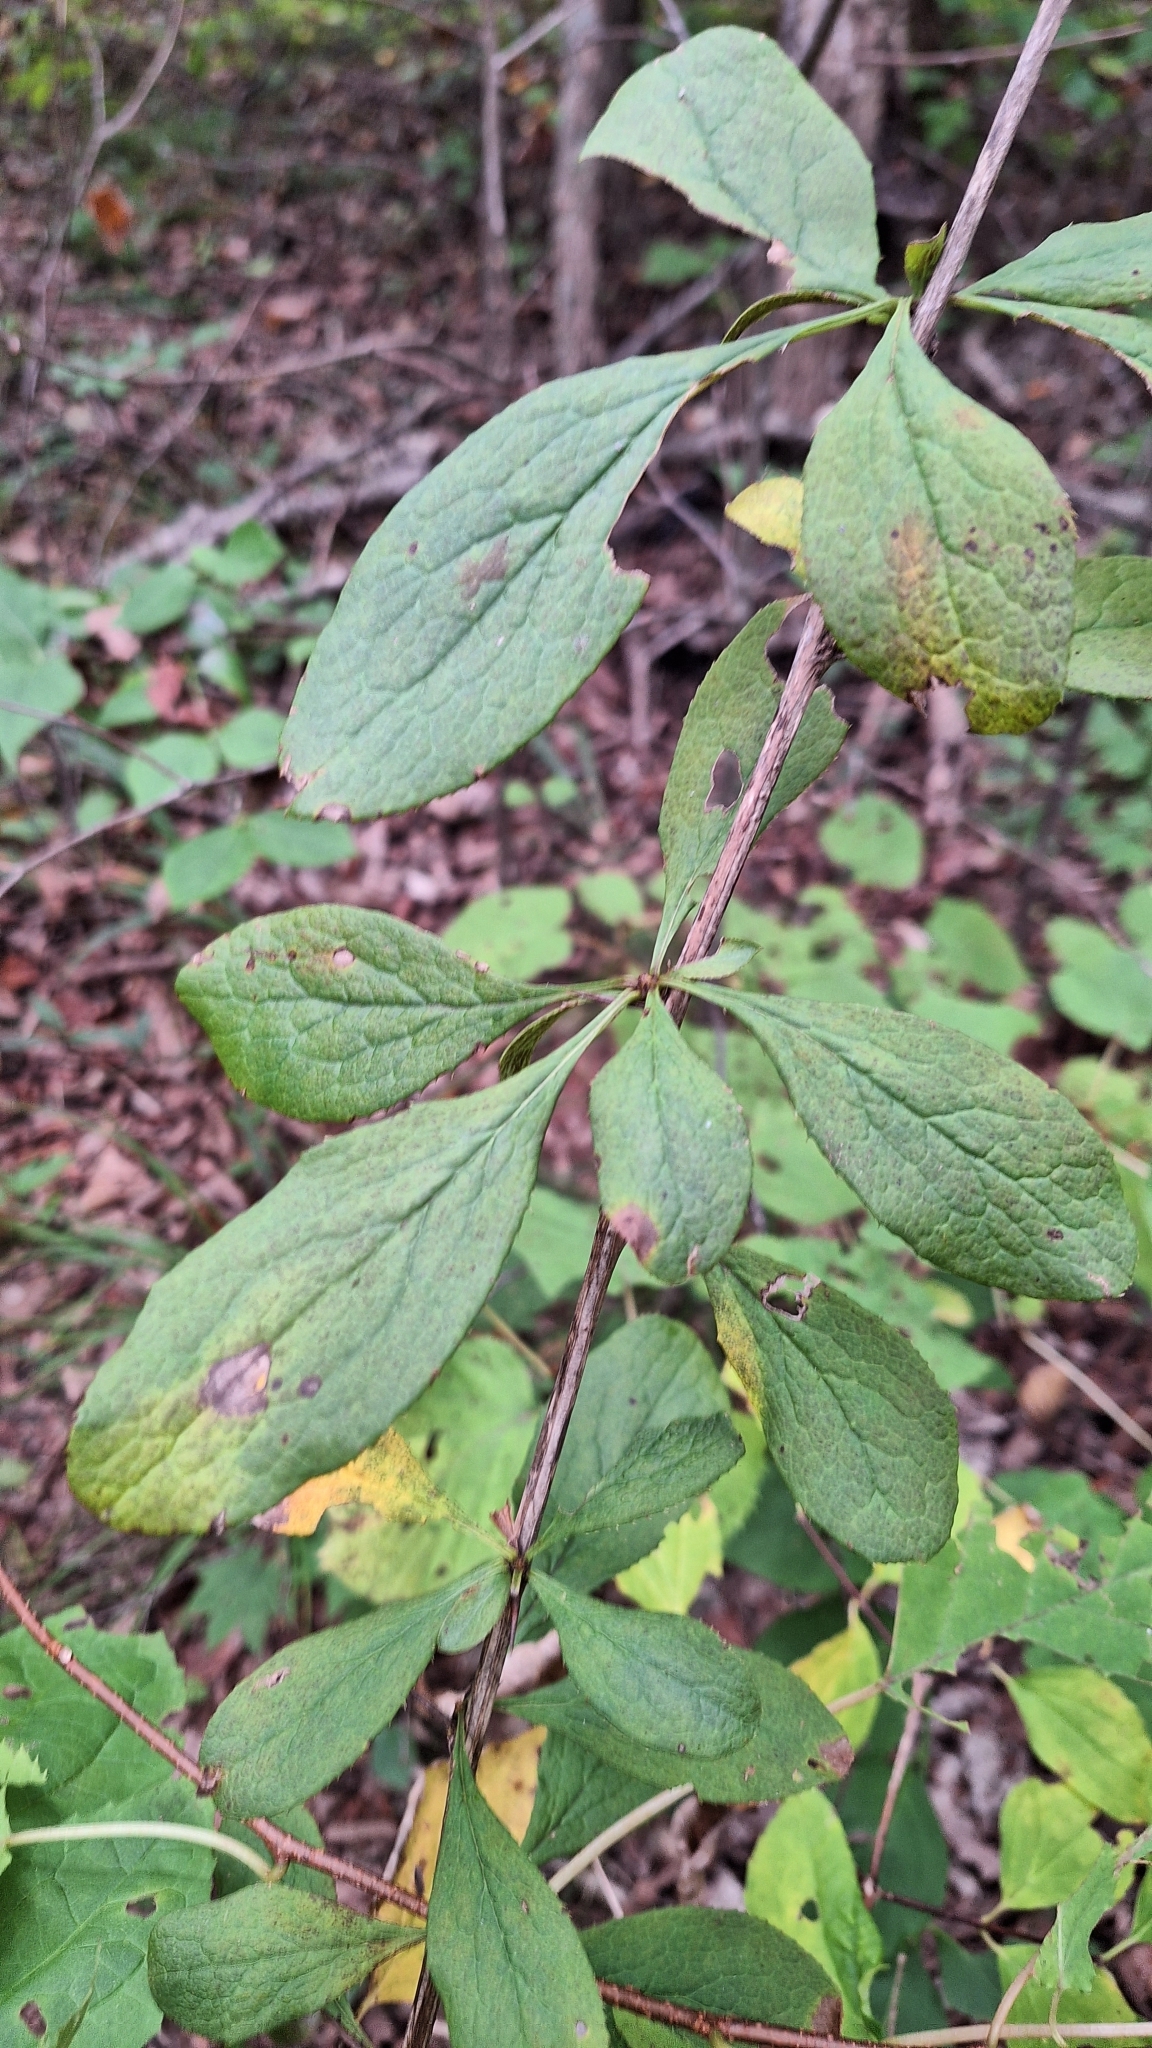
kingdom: Plantae
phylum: Tracheophyta
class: Magnoliopsida
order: Ranunculales
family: Berberidaceae
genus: Berberis
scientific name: Berberis amurensis
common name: Amur barberry
